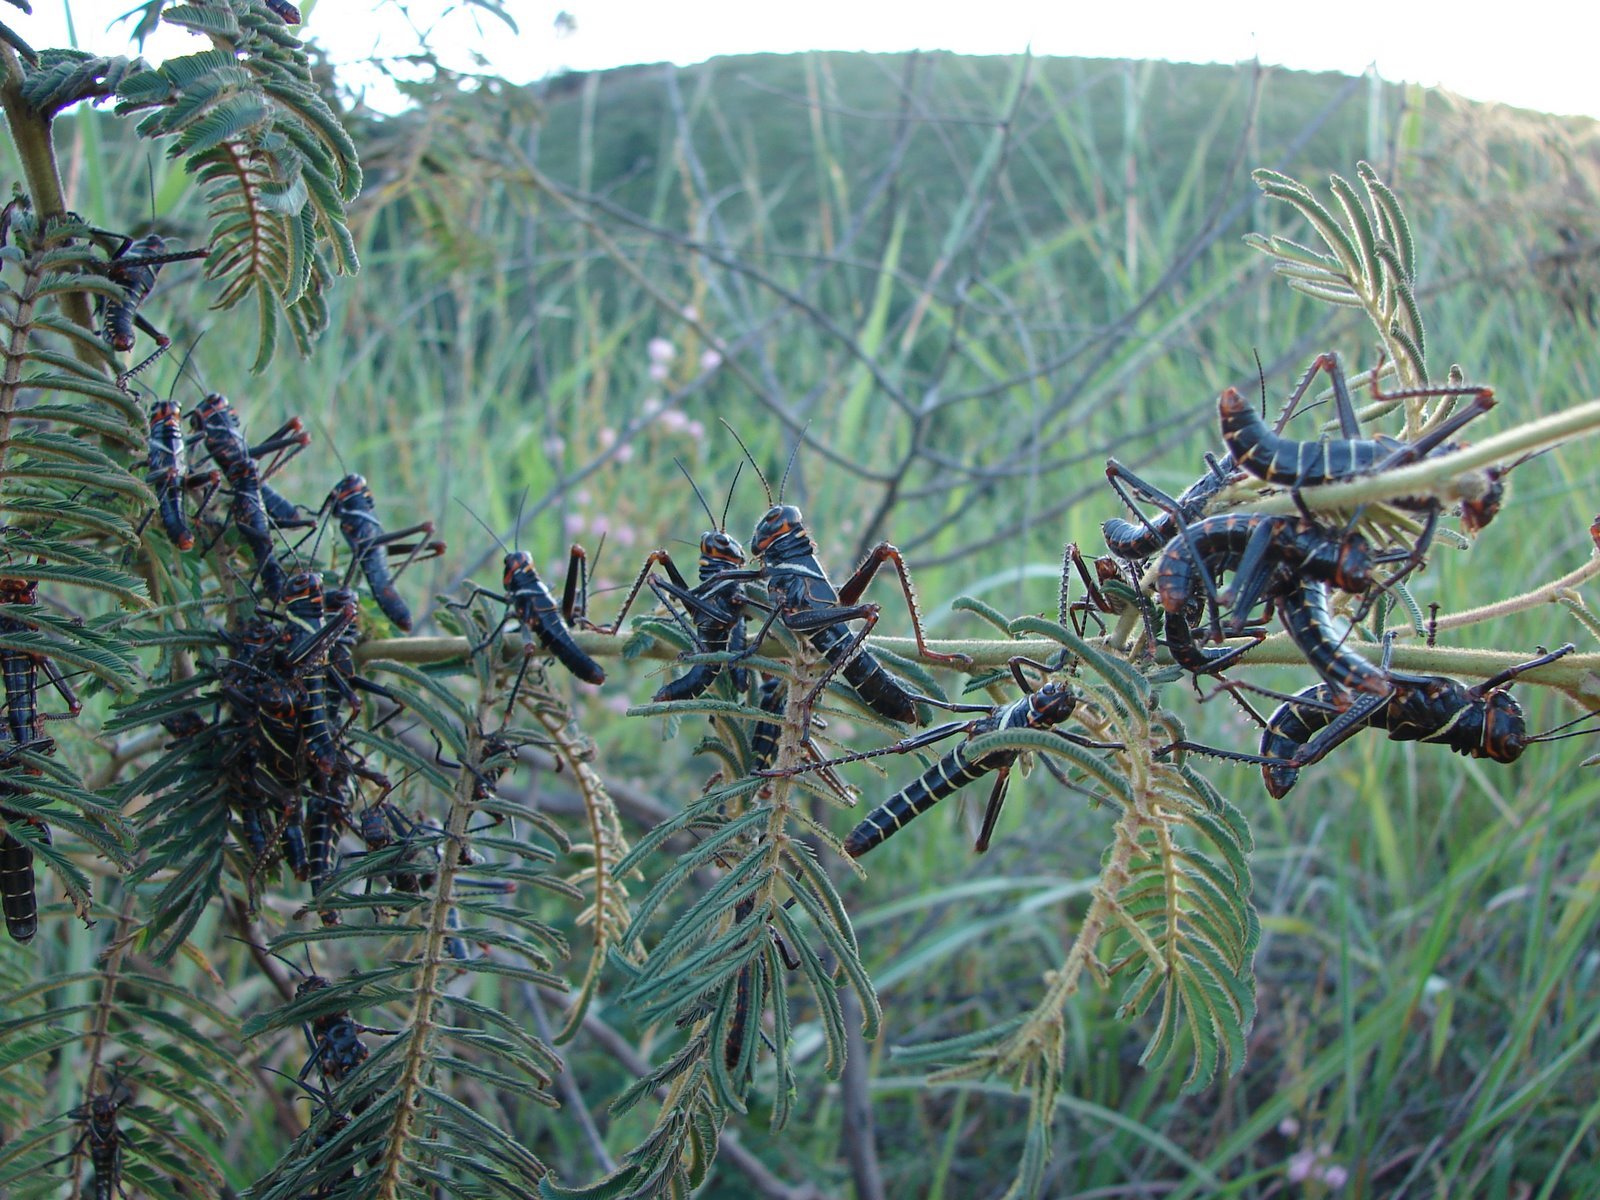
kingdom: Animalia
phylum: Arthropoda
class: Insecta
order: Orthoptera
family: Romaleidae
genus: Tropidacris
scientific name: Tropidacris collaris
